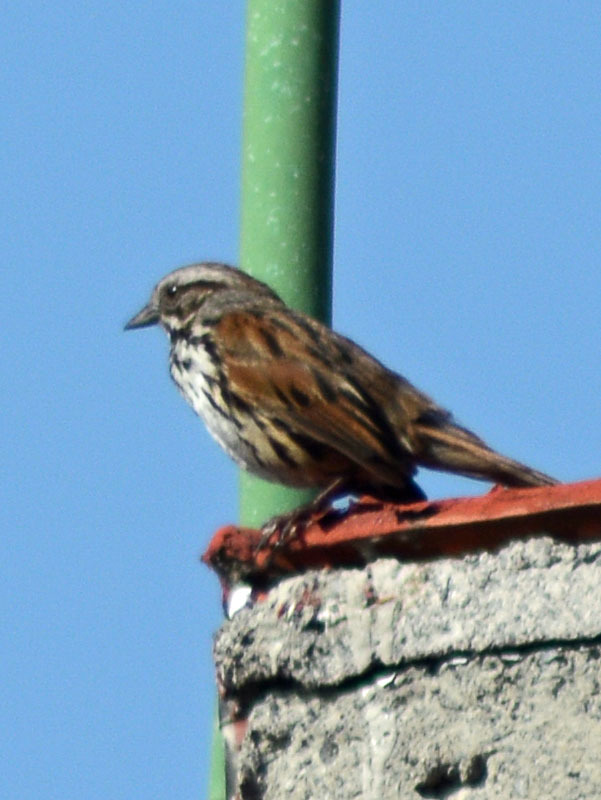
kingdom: Animalia
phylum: Chordata
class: Aves
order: Passeriformes
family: Passerellidae
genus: Melospiza
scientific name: Melospiza melodia
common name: Song sparrow
